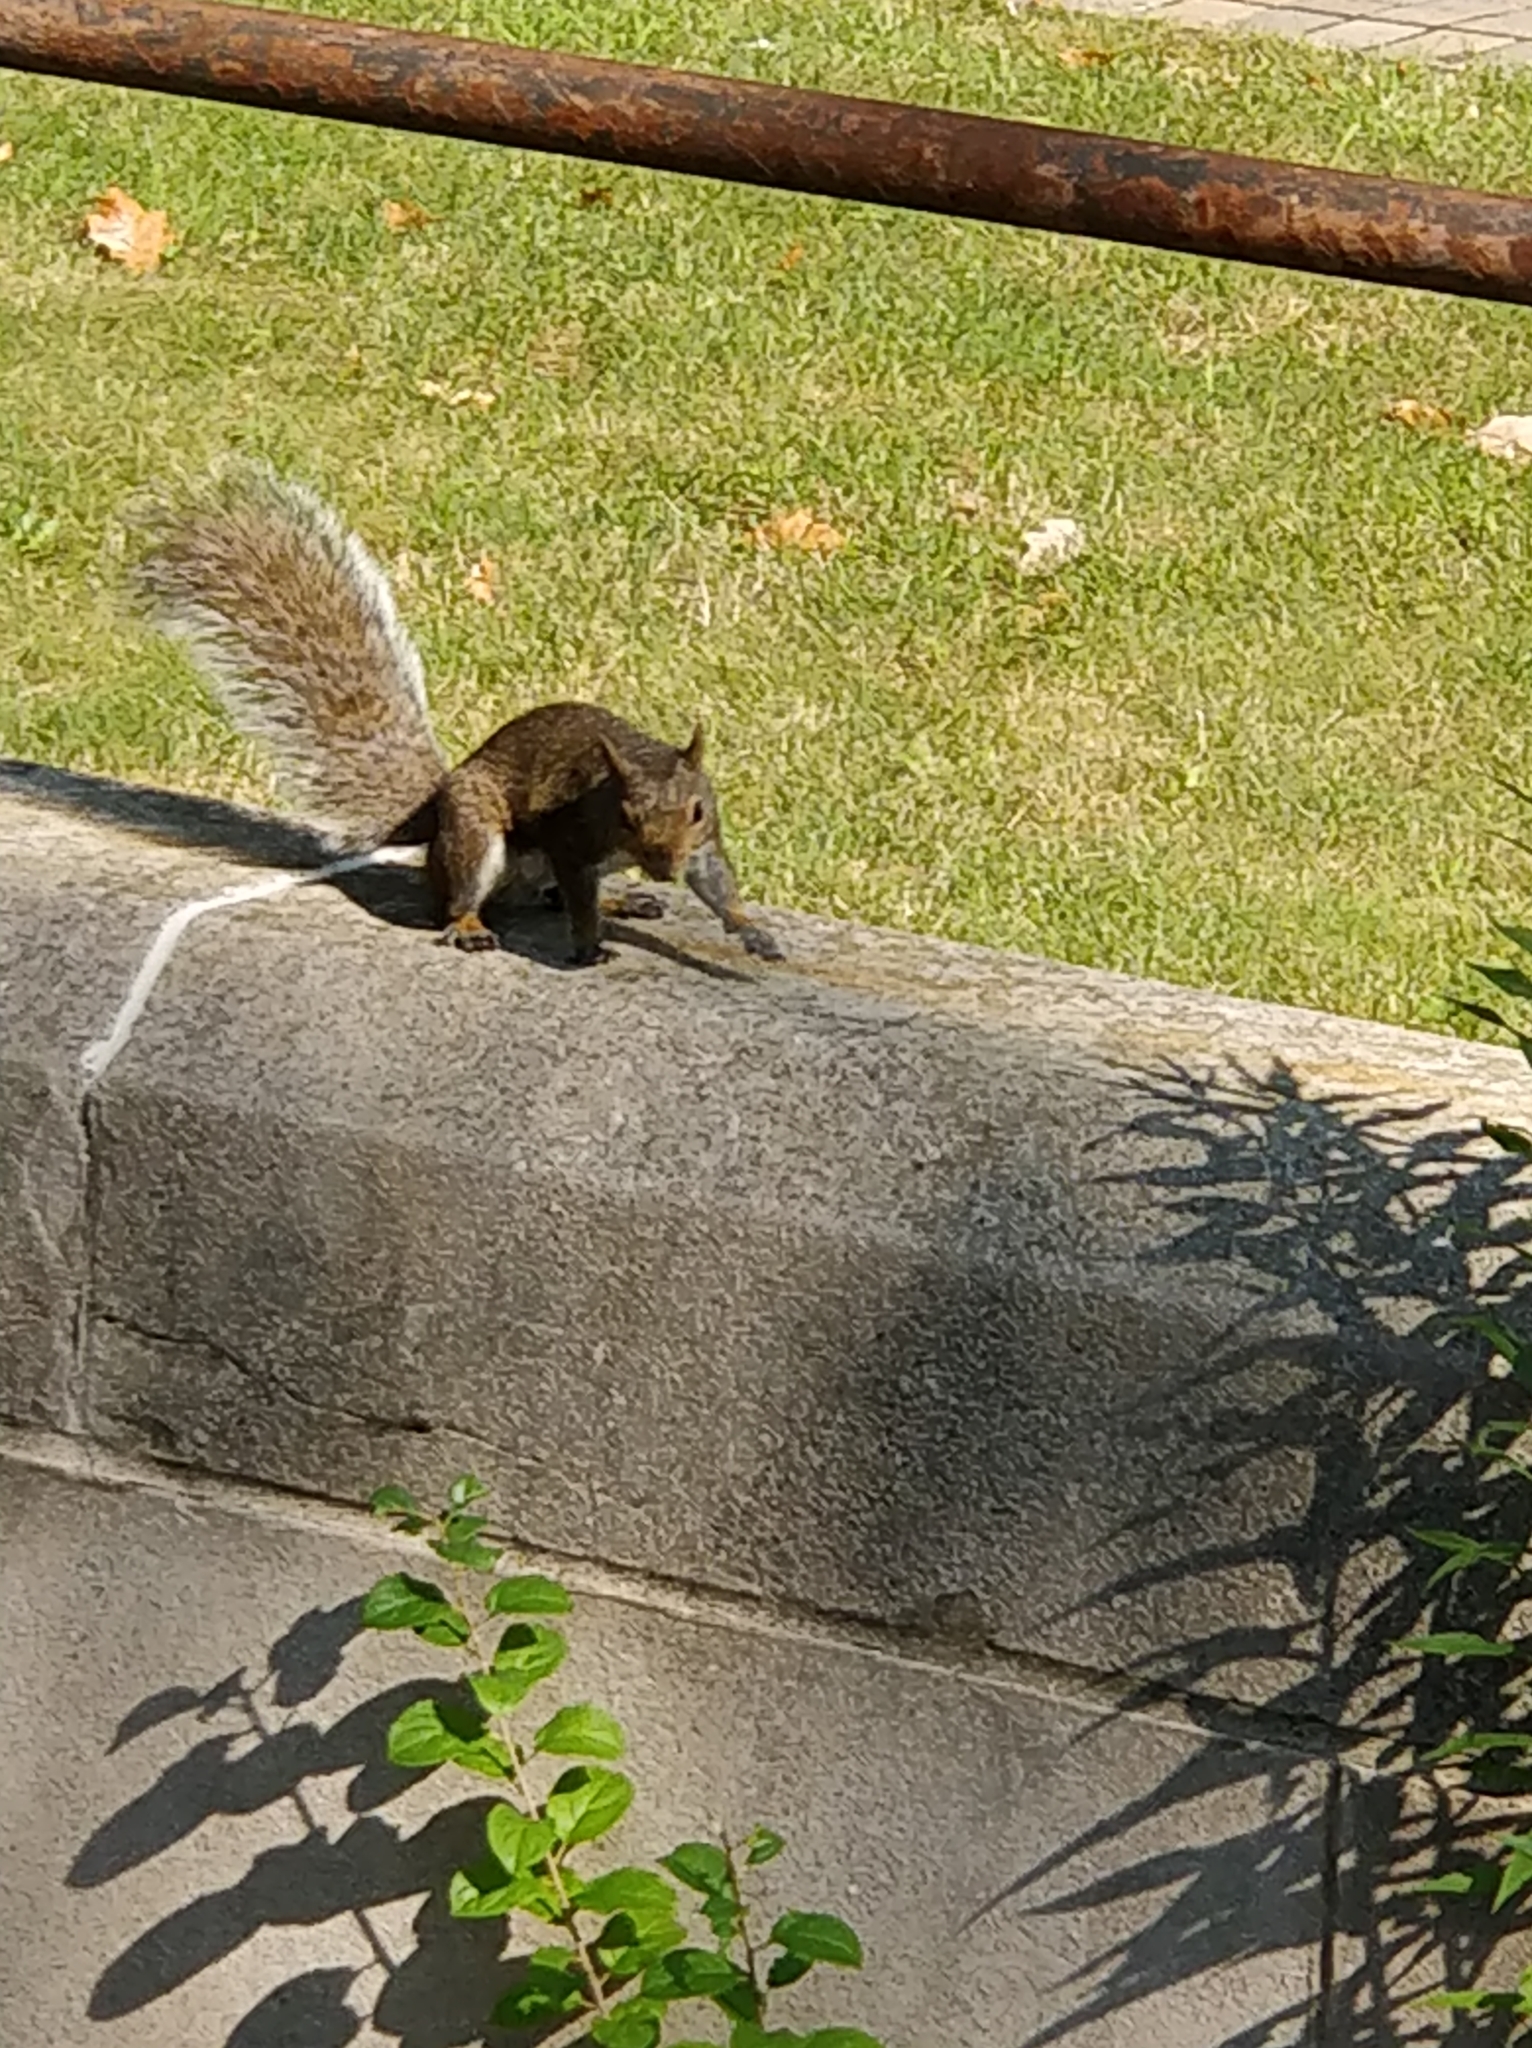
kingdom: Animalia
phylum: Chordata
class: Mammalia
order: Rodentia
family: Sciuridae
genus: Sciurus
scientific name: Sciurus carolinensis
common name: Eastern gray squirrel
